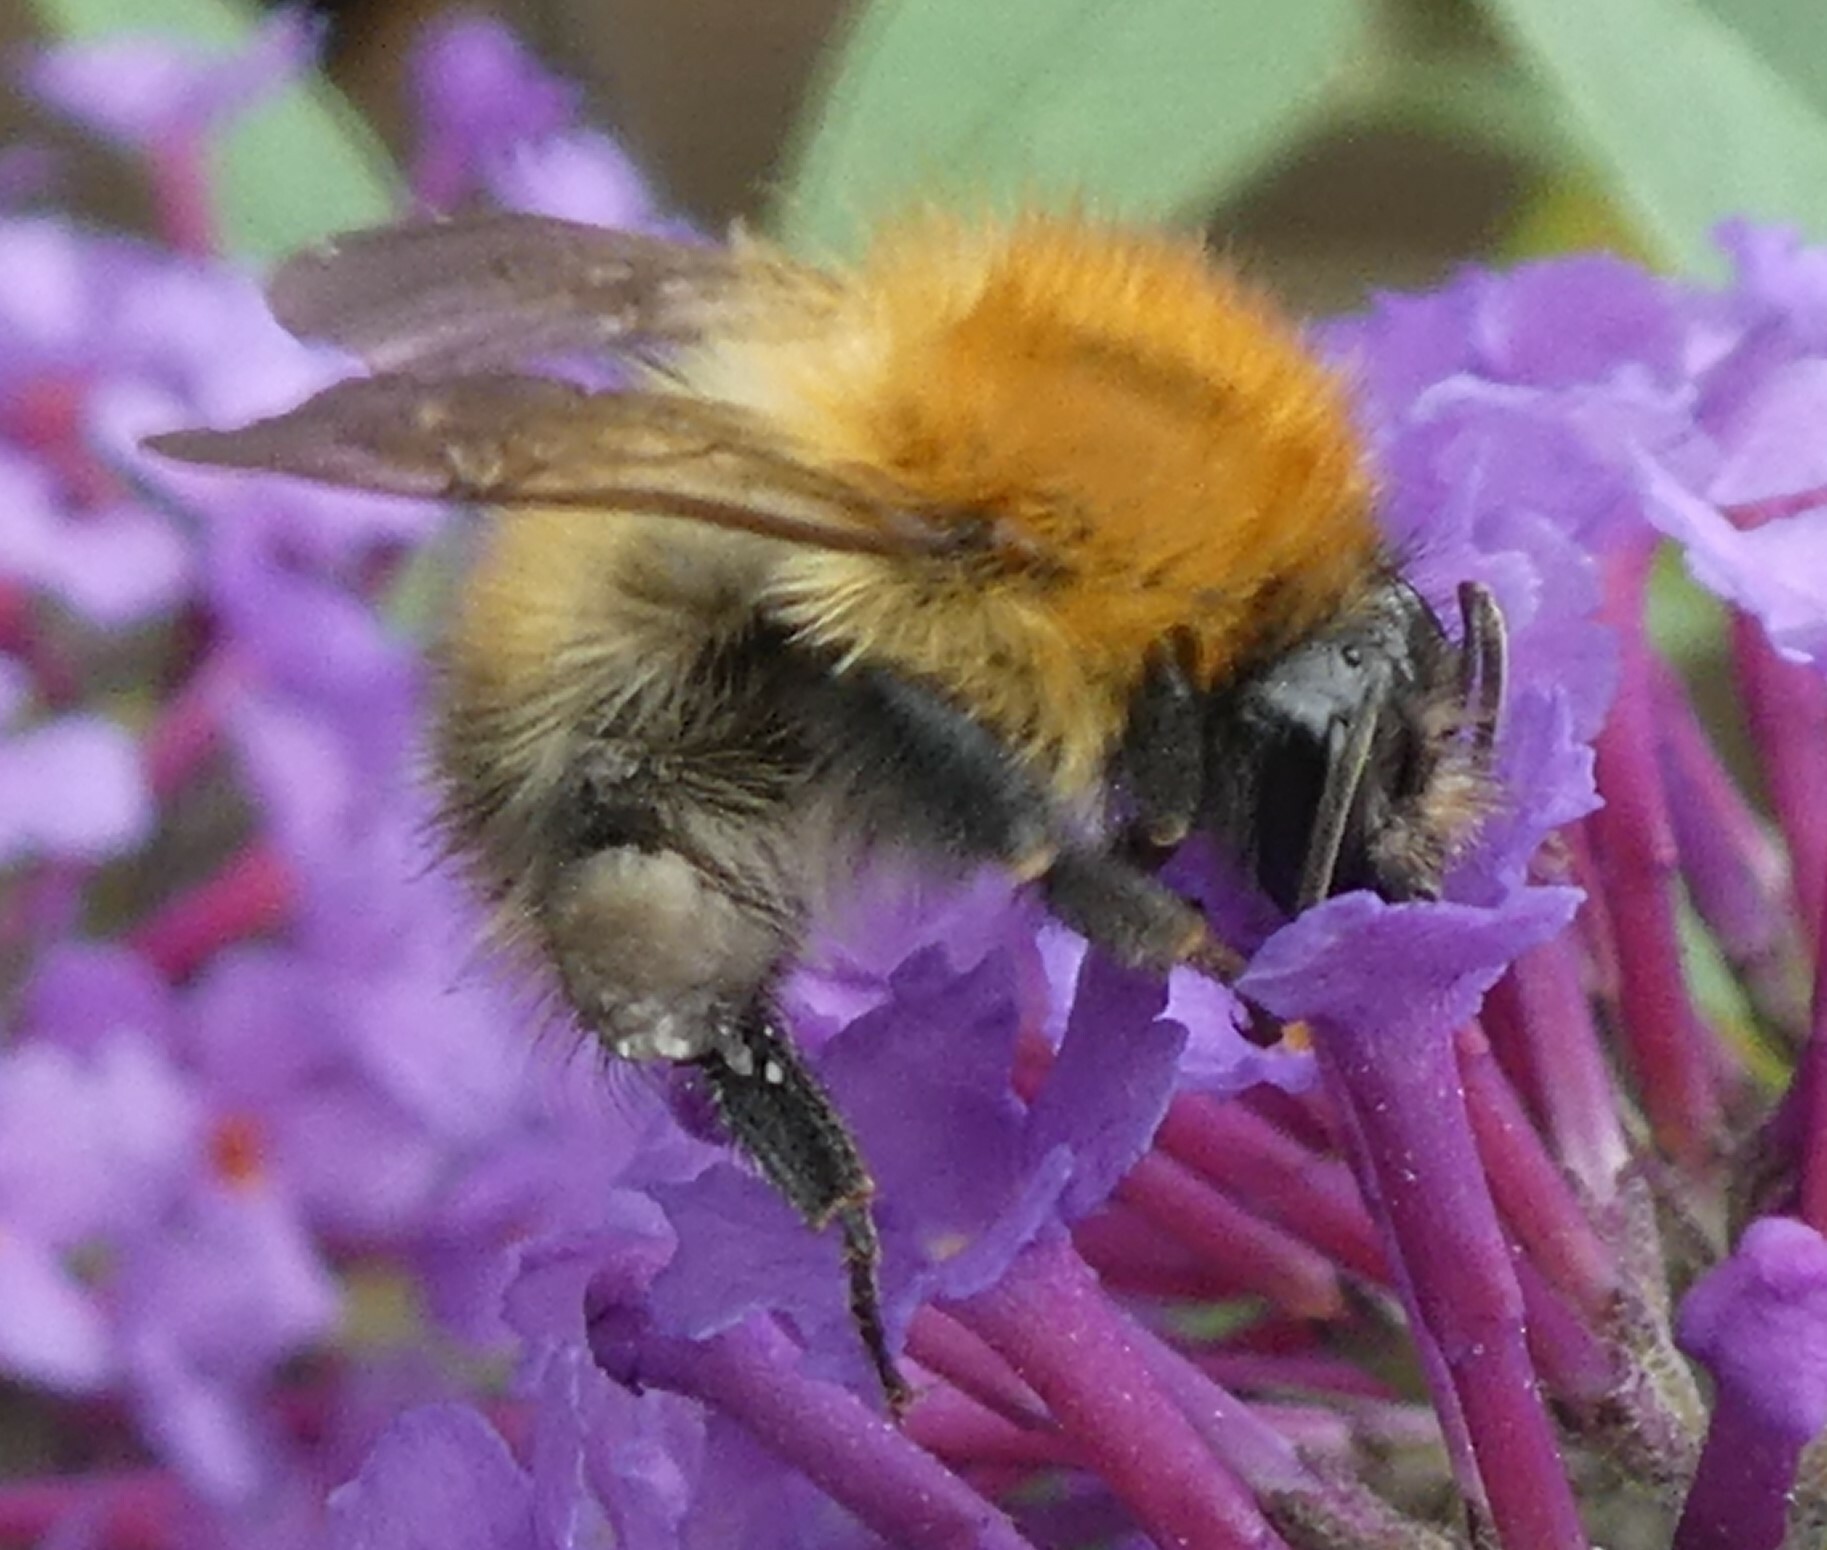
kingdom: Animalia
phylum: Arthropoda
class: Insecta
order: Hymenoptera
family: Apidae
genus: Bombus
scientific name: Bombus pascuorum
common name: Common carder bee
